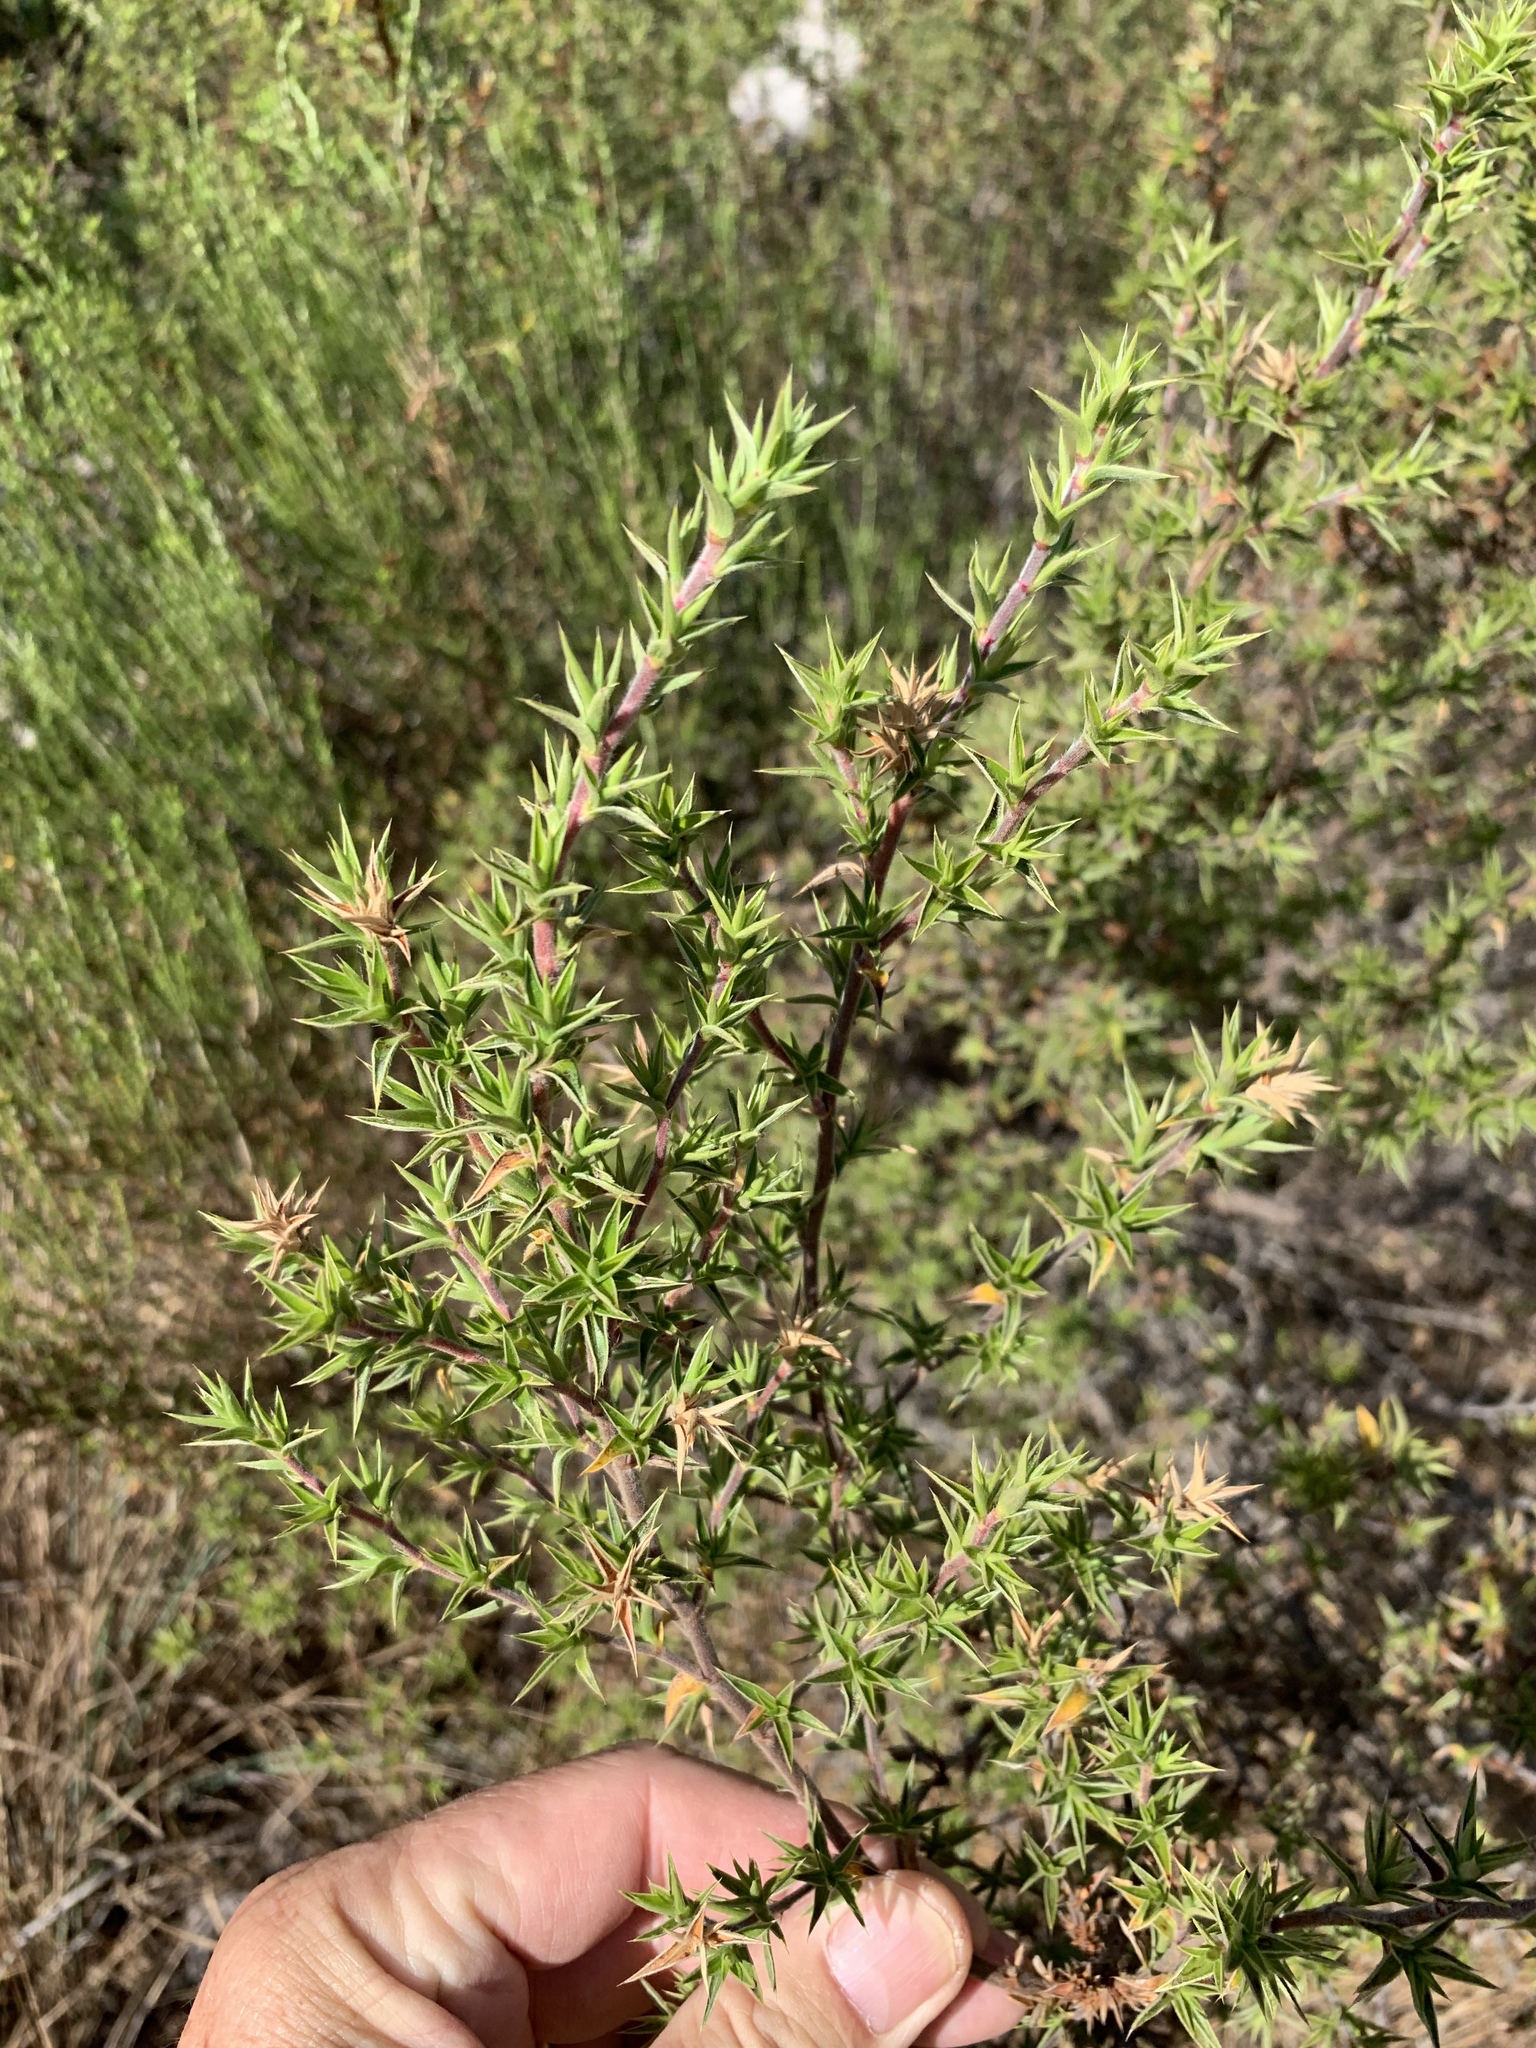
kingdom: Plantae
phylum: Tracheophyta
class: Magnoliopsida
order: Rosales
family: Rosaceae
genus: Cliffortia
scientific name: Cliffortia ruscifolia
